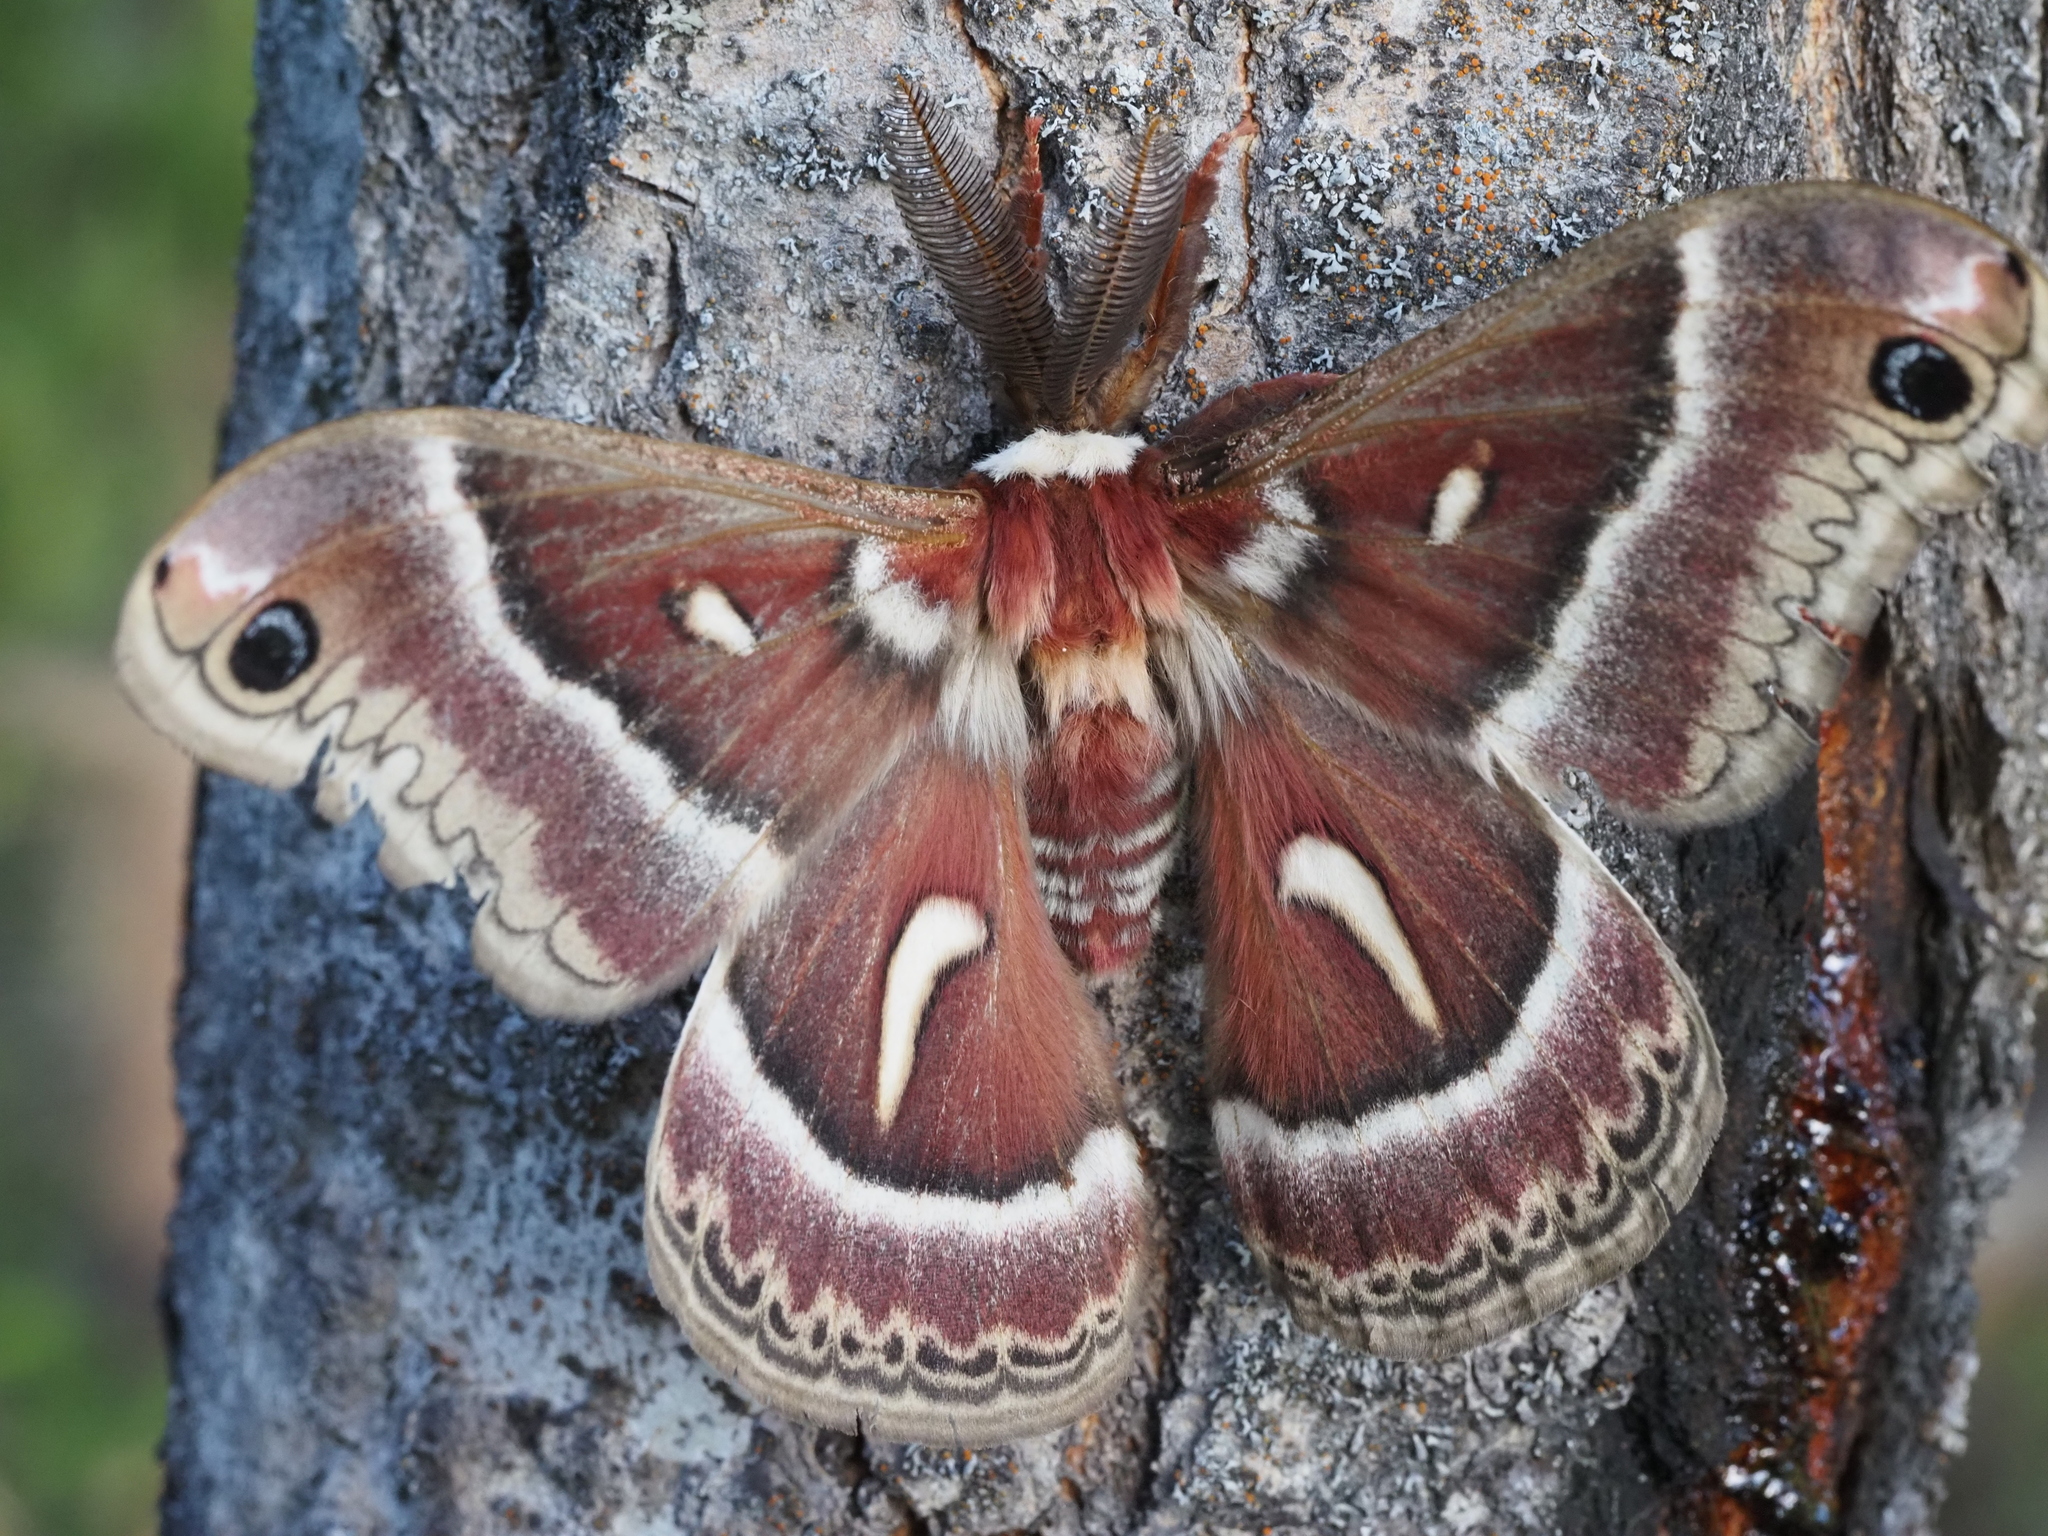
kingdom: Animalia
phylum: Arthropoda
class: Insecta
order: Lepidoptera
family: Saturniidae
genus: Hyalophora
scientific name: Hyalophora euryalus
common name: Ceanothus silkmoth
